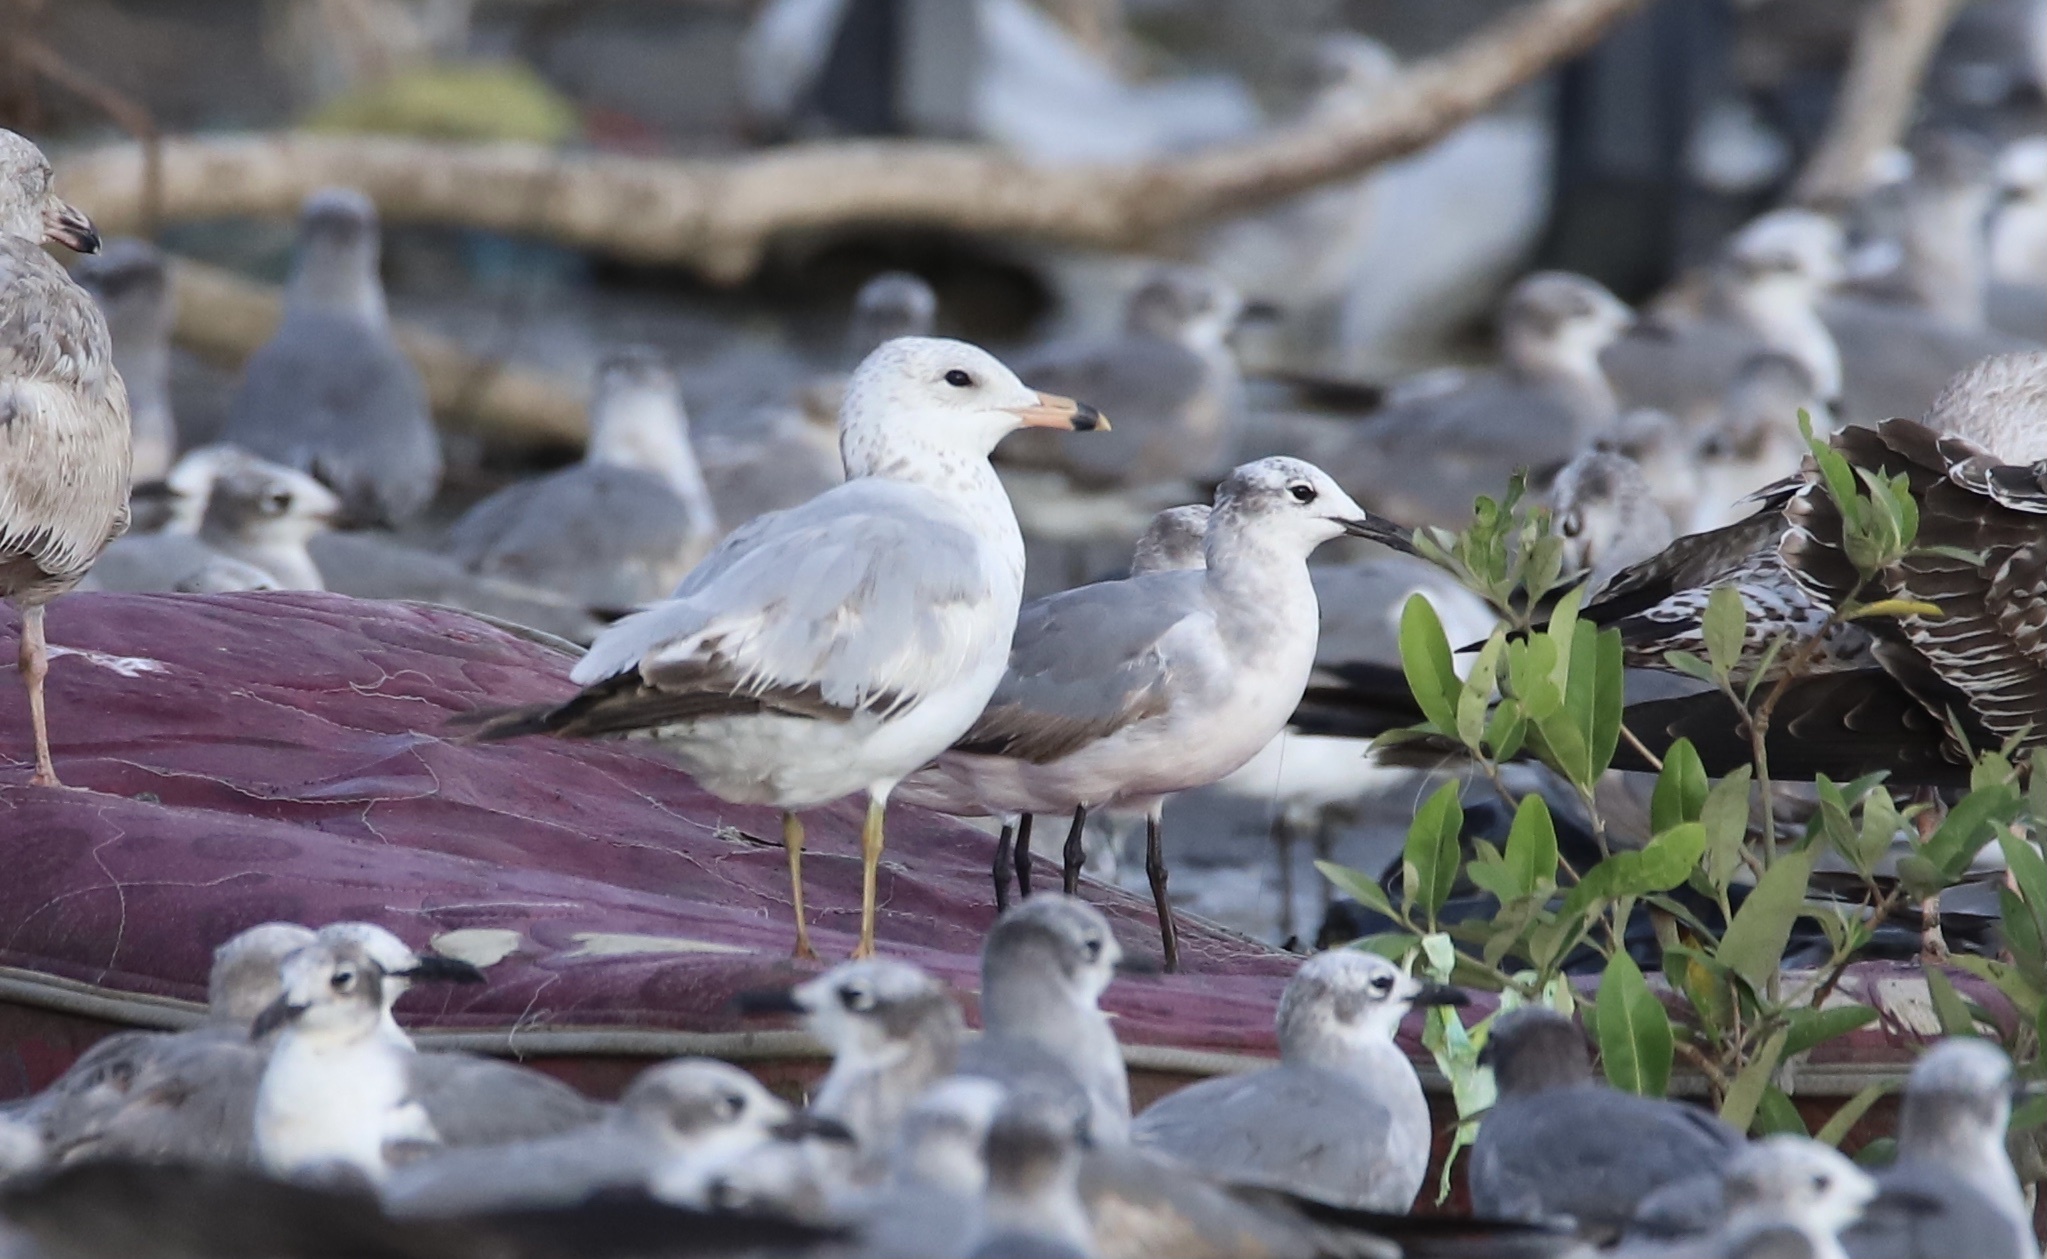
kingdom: Animalia
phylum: Chordata
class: Aves
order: Charadriiformes
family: Laridae
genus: Larus
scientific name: Larus delawarensis
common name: Ring-billed gull
